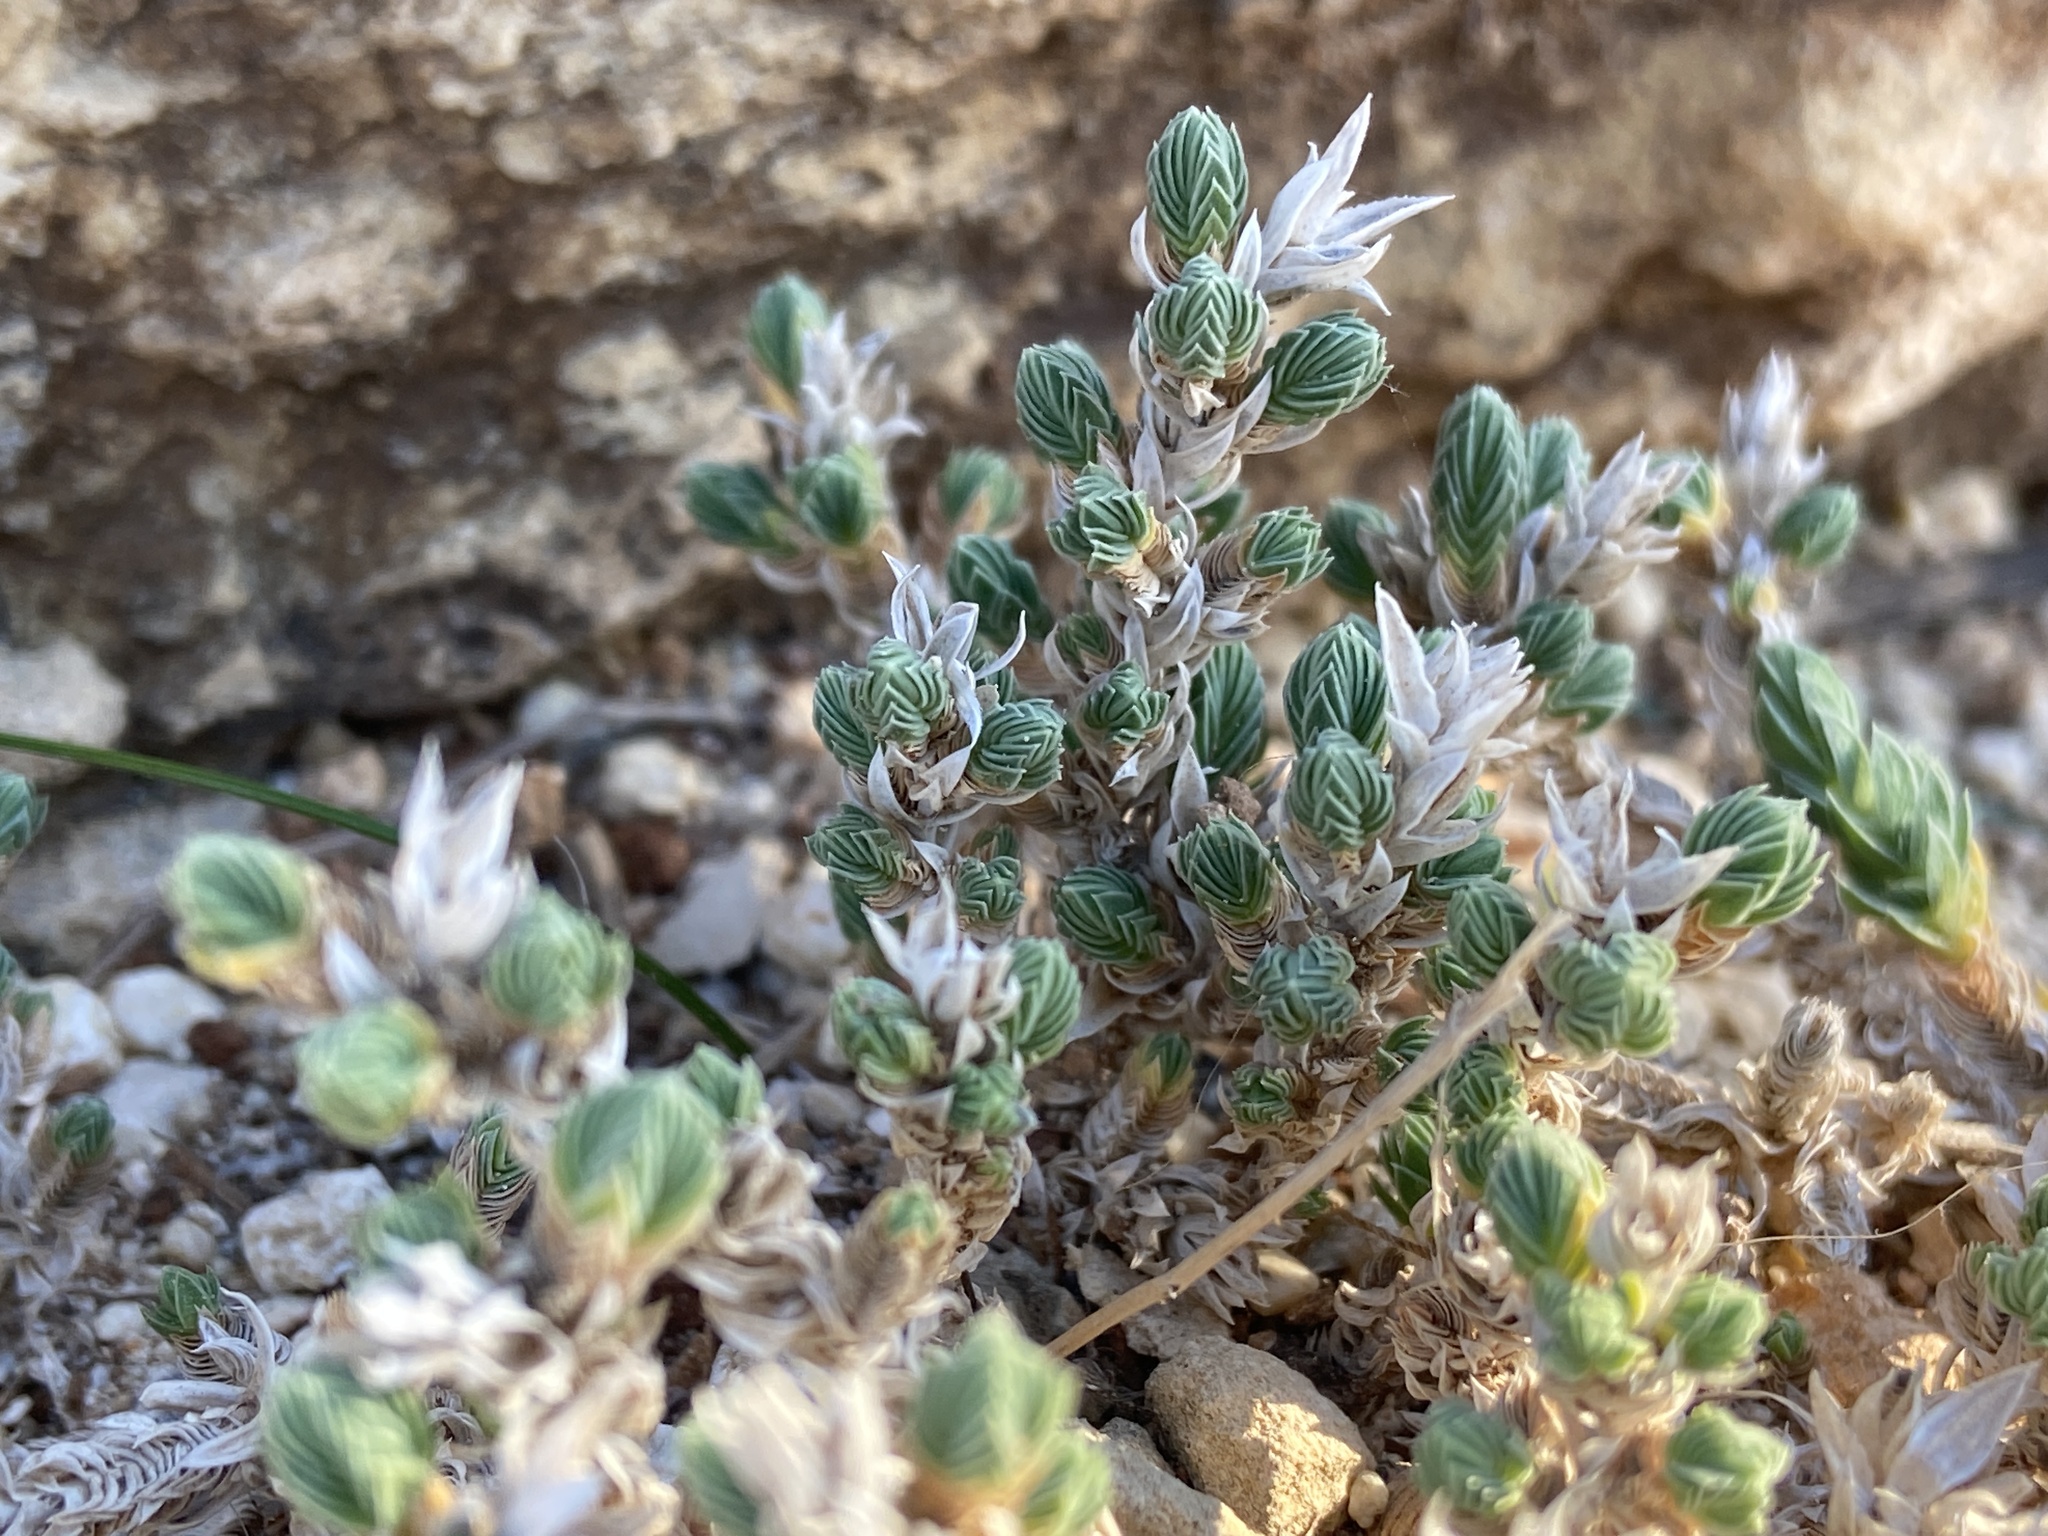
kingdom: Plantae
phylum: Tracheophyta
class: Magnoliopsida
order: Gentianales
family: Rubiaceae
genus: Crucianella
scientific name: Crucianella maritima
